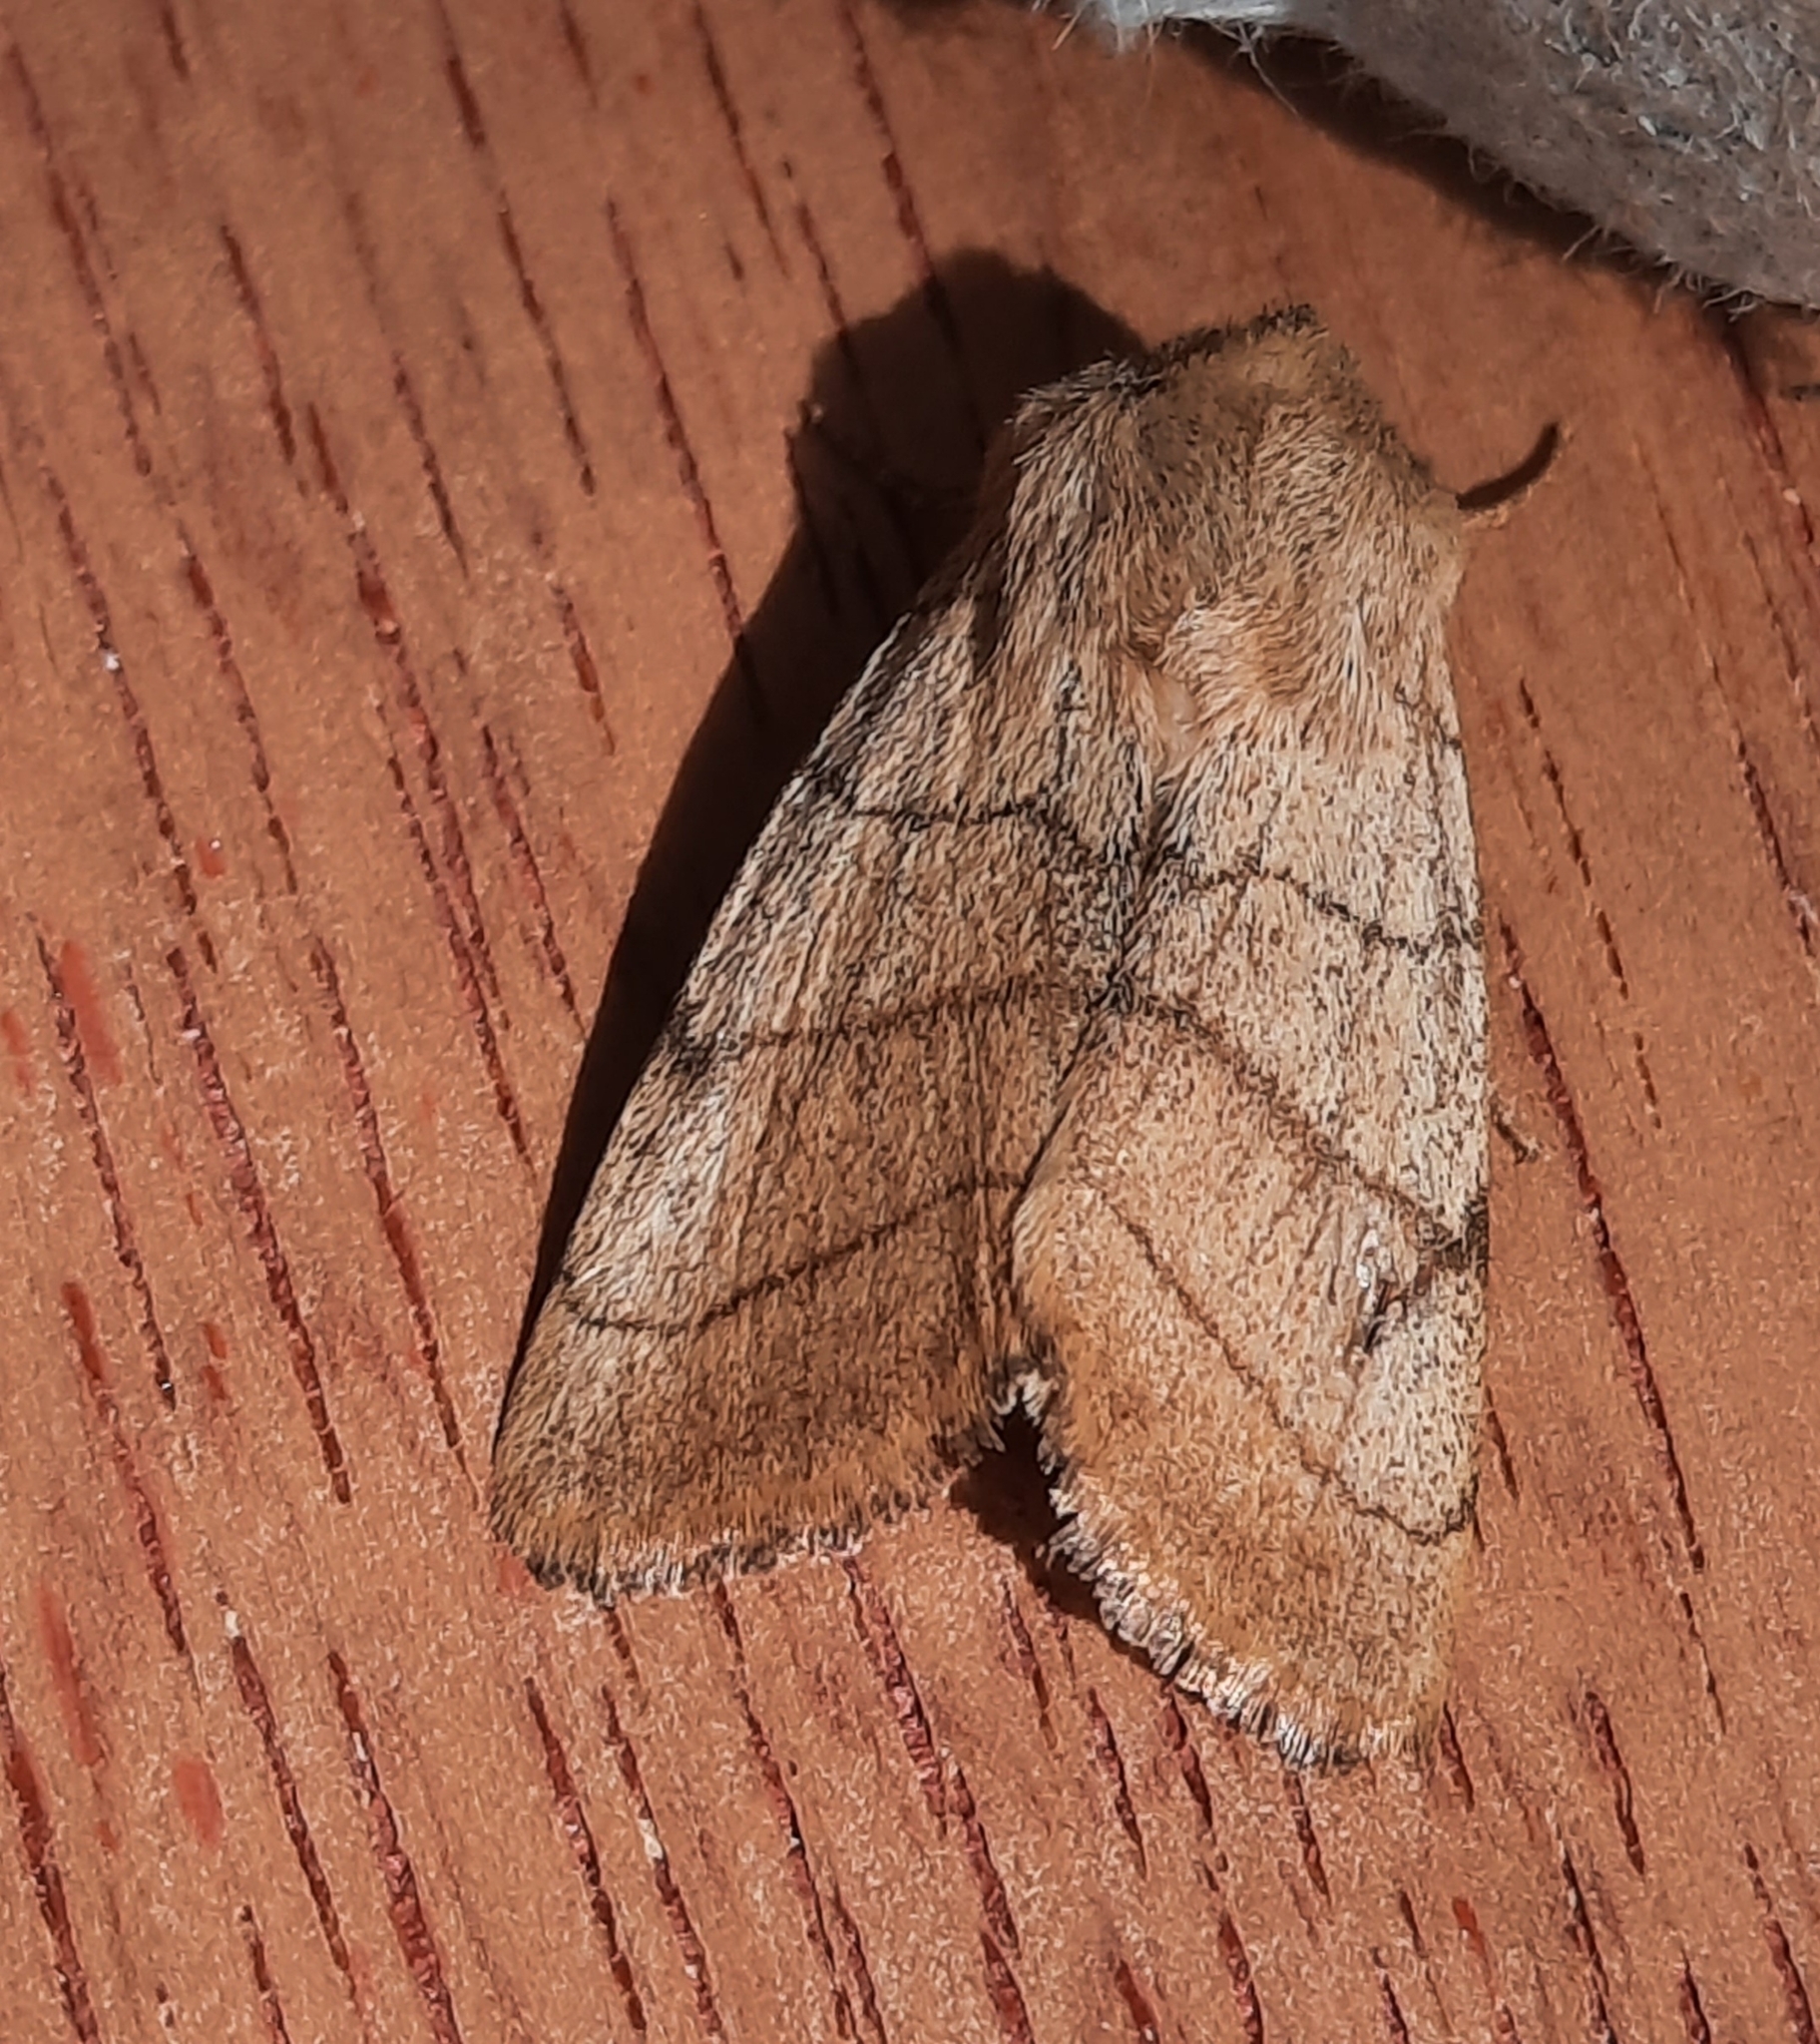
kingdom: Animalia
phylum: Arthropoda
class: Insecta
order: Lepidoptera
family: Noctuidae
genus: Charanyca
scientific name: Charanyca trigrammica
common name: Treble lines
